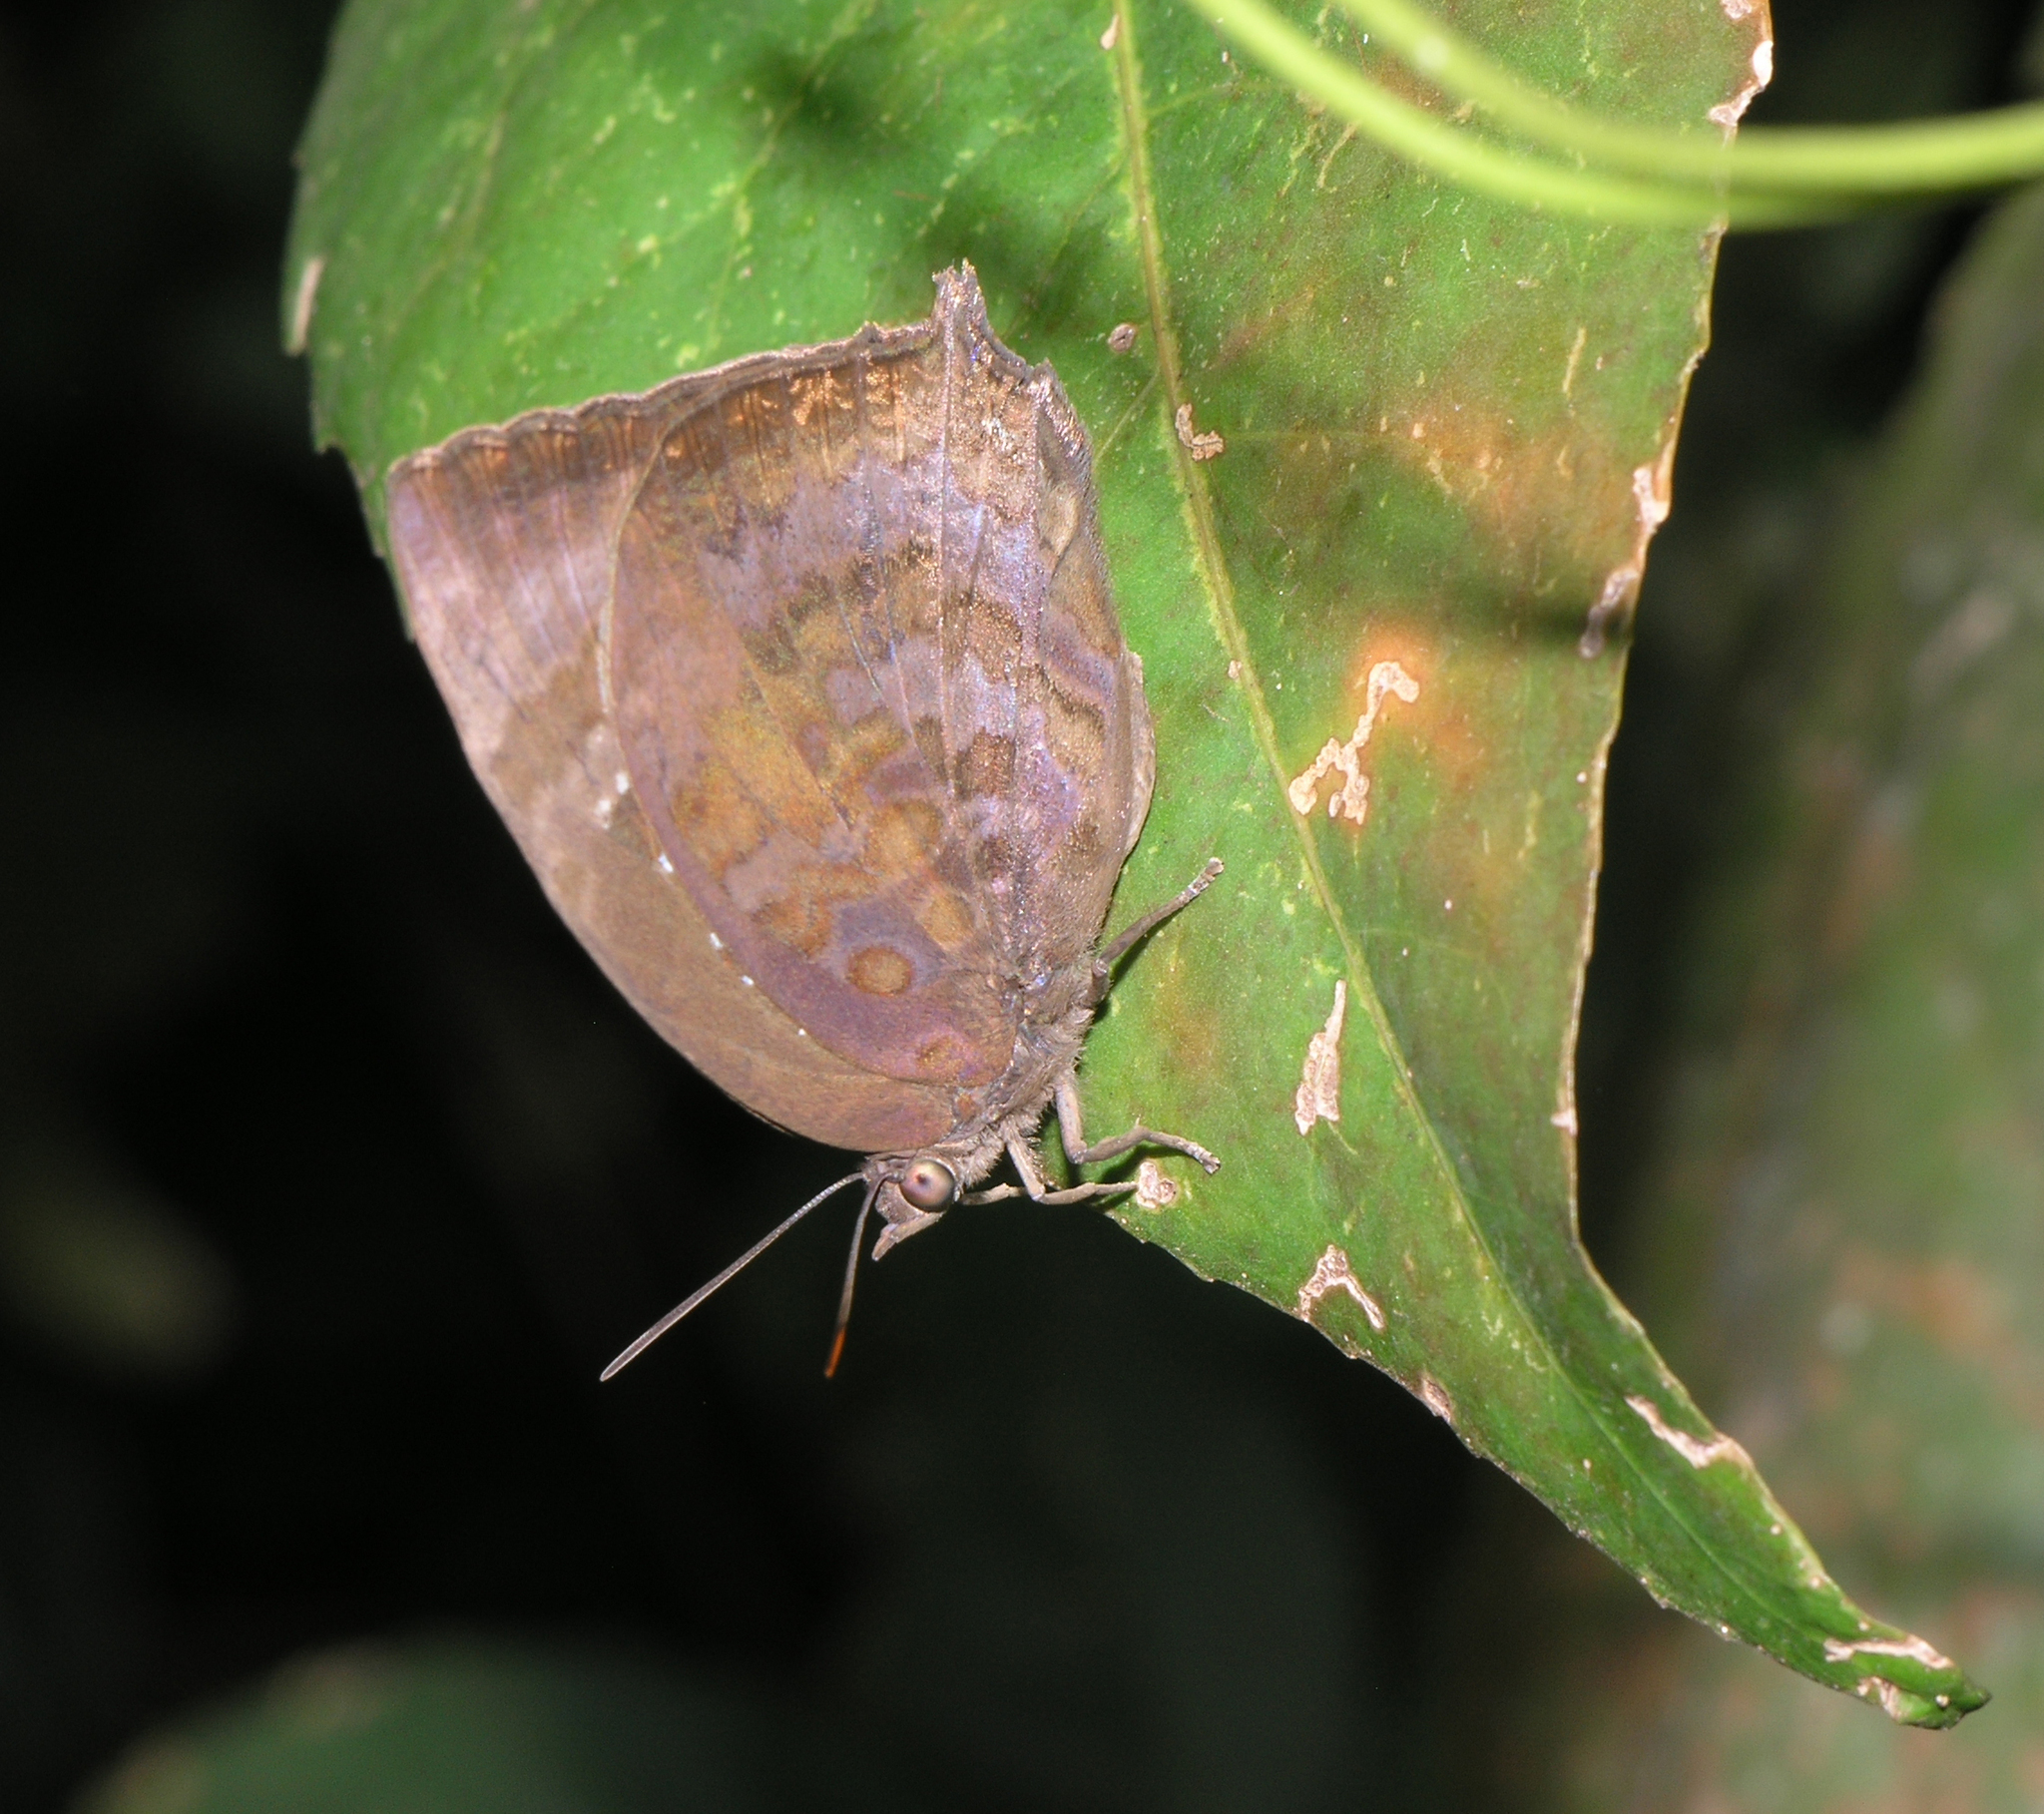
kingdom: Animalia
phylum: Arthropoda
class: Insecta
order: Lepidoptera
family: Lycaenidae
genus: Arhopala
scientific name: Arhopala centaurus
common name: Dull oak-blue
